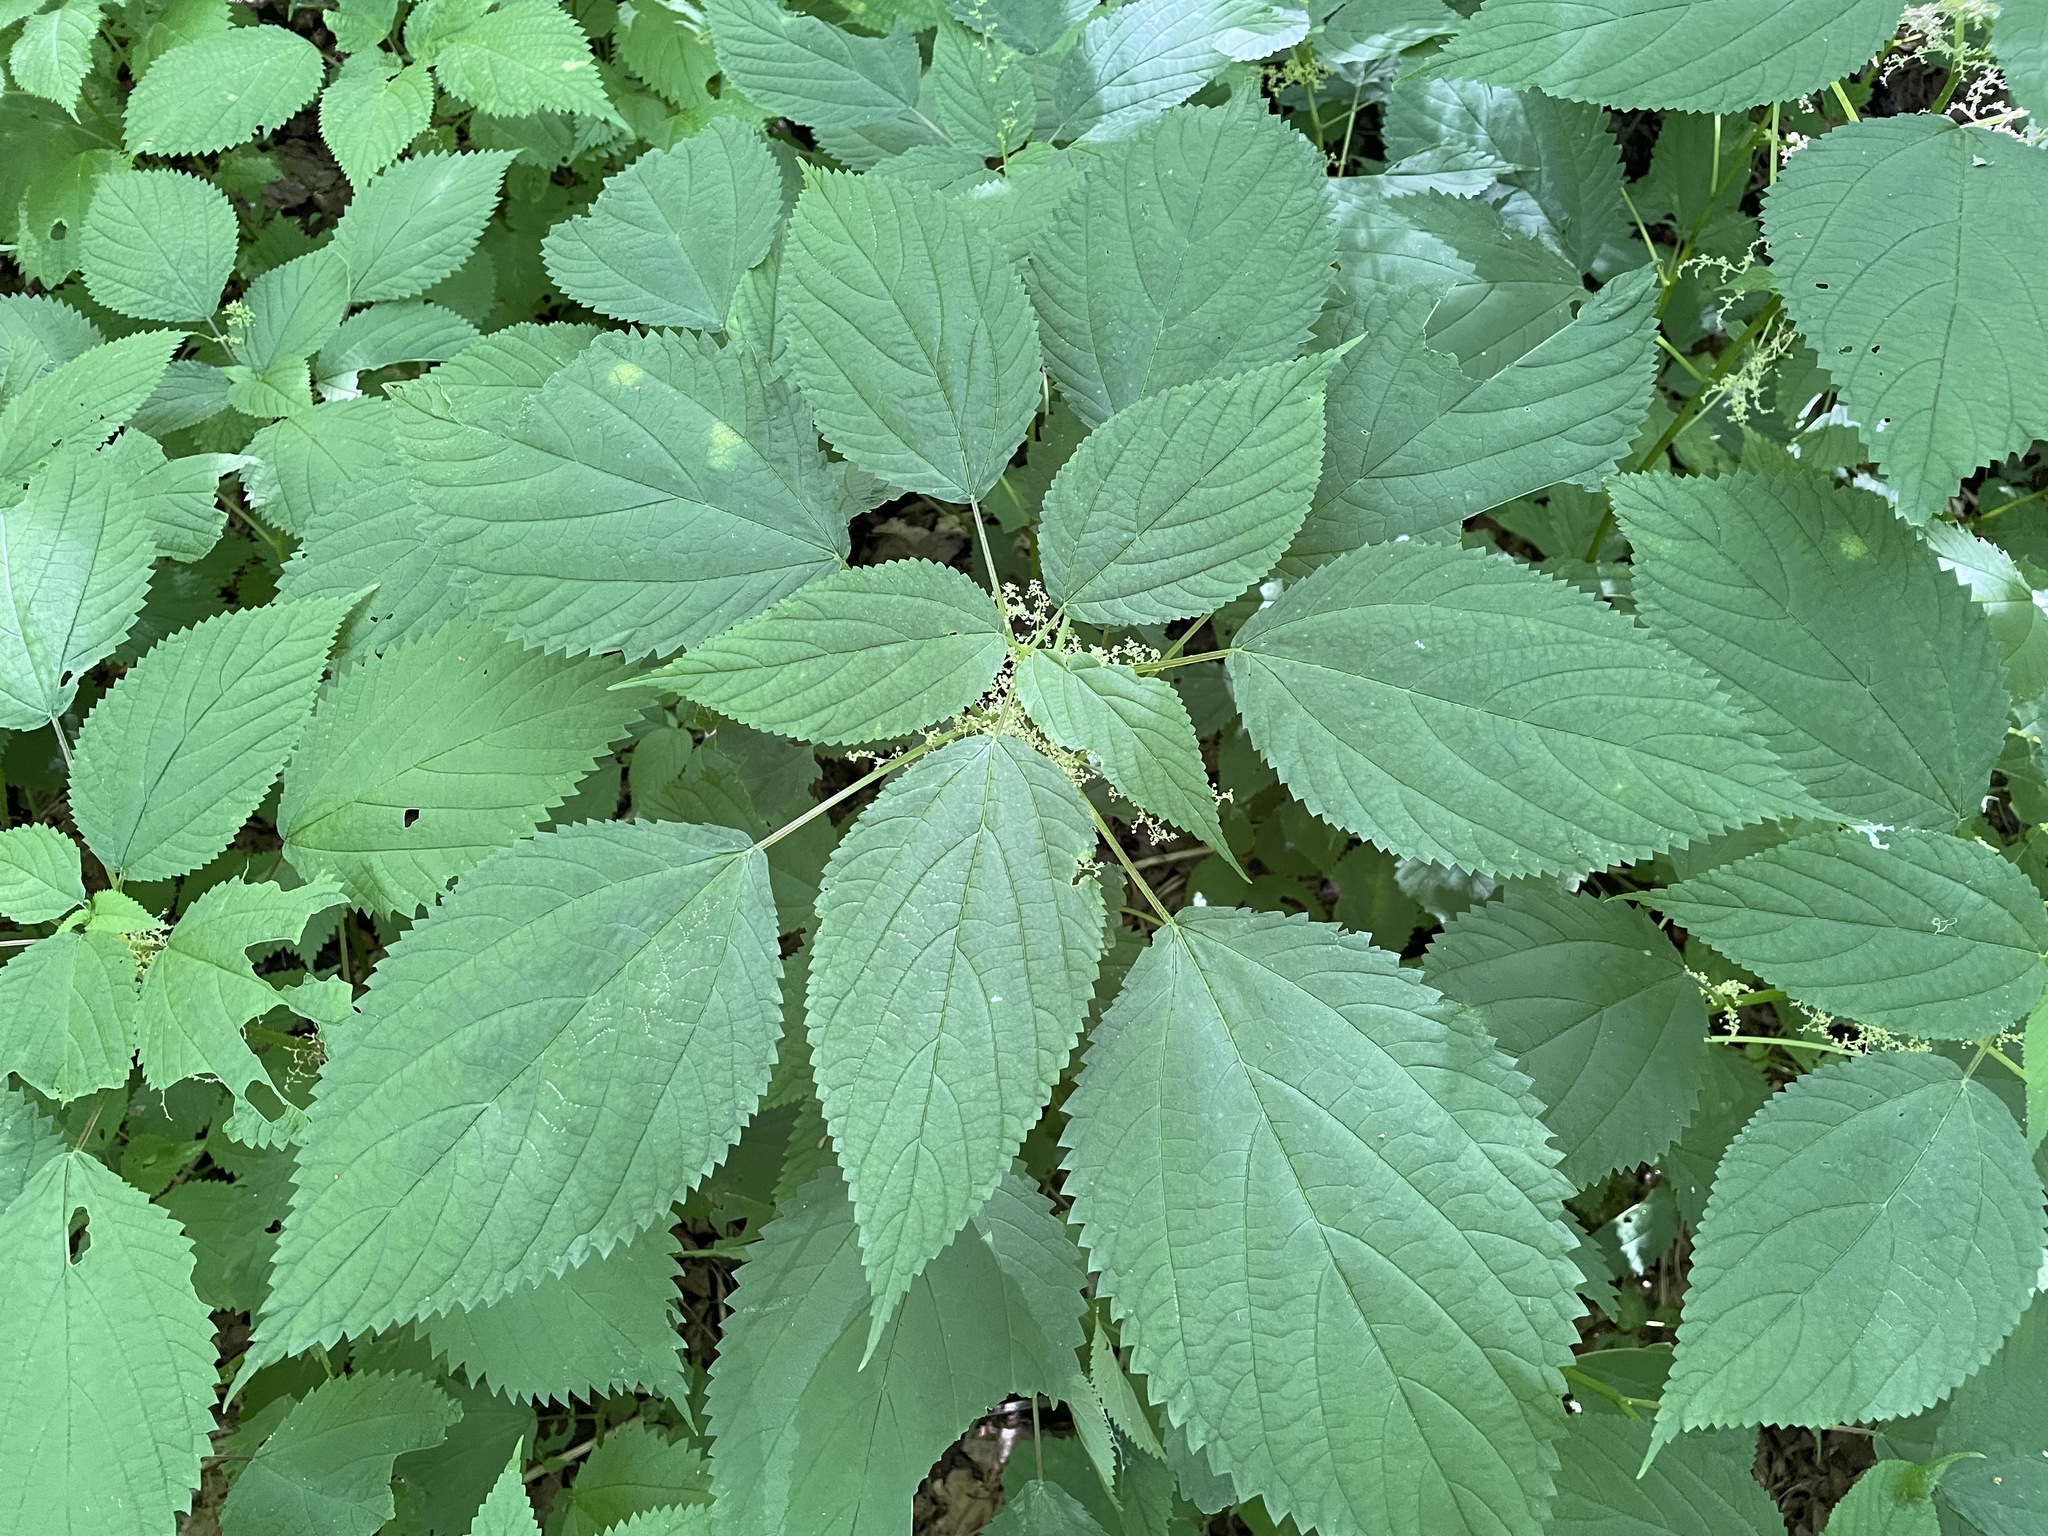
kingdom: Plantae
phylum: Tracheophyta
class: Magnoliopsida
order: Rosales
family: Urticaceae
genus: Laportea
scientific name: Laportea canadensis
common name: Canada nettle
